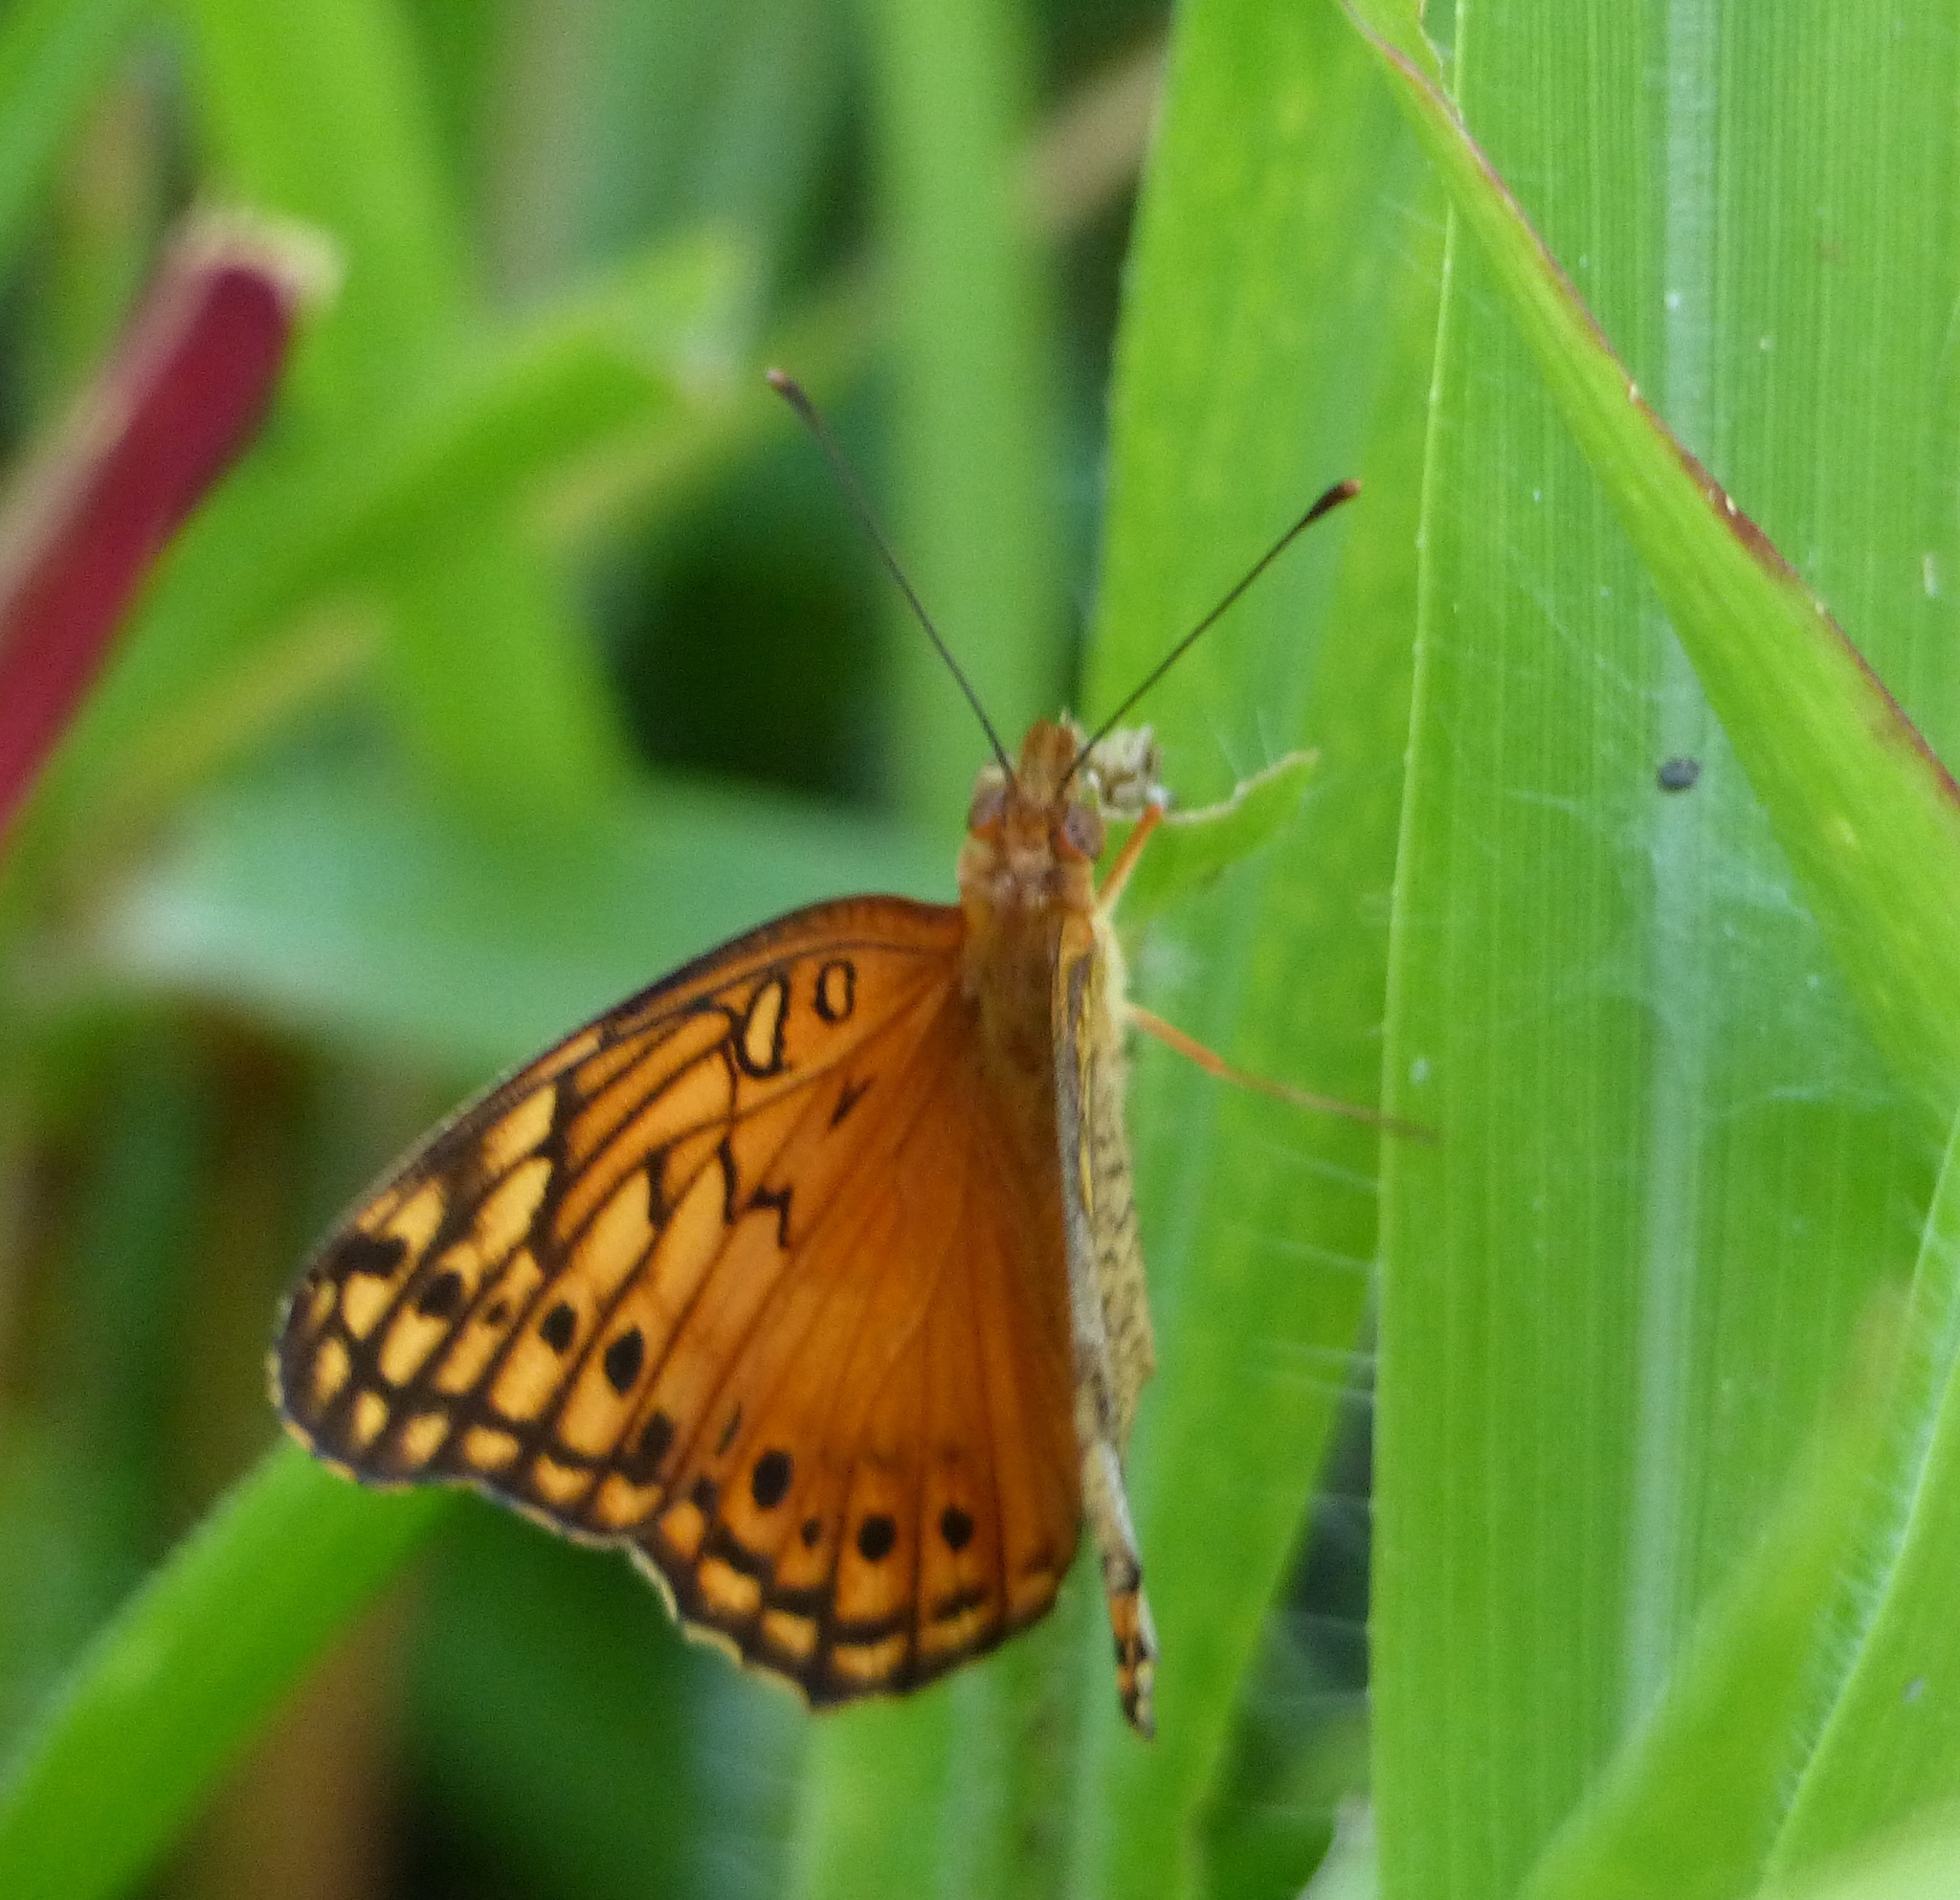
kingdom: Animalia
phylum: Arthropoda
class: Insecta
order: Lepidoptera
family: Nymphalidae
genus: Euptoieta
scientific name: Euptoieta hegesia
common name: Mexican fritillary
